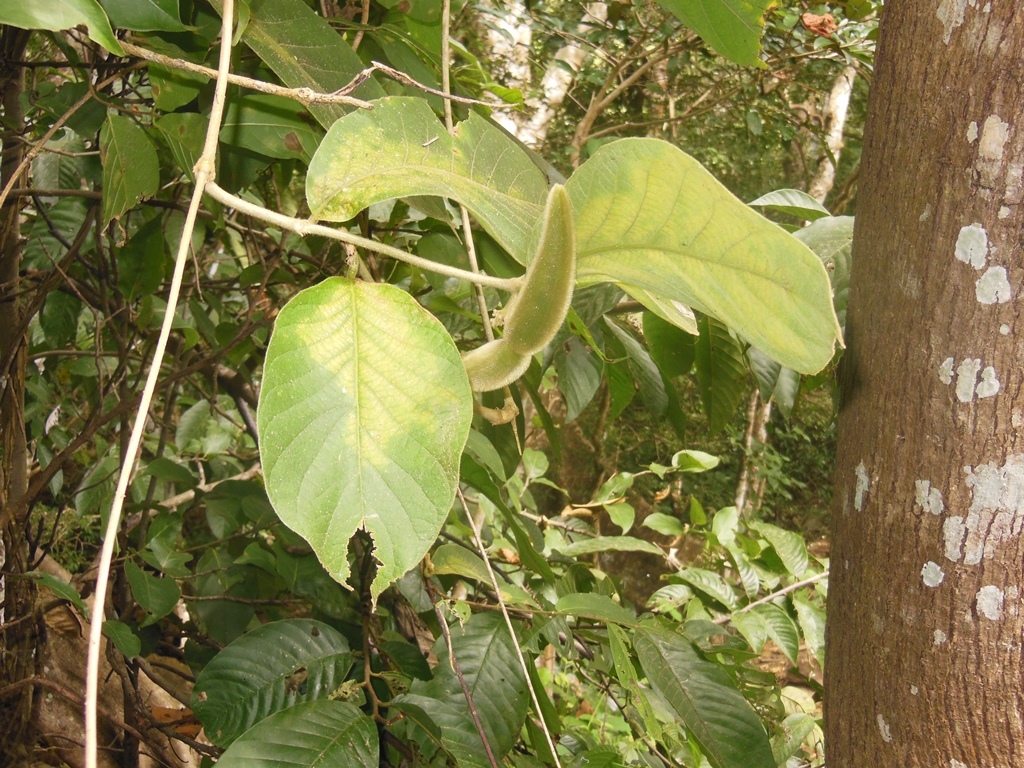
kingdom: Plantae
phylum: Tracheophyta
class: Magnoliopsida
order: Gentianales
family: Apocynaceae
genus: Prestonia
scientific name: Prestonia mexicana
